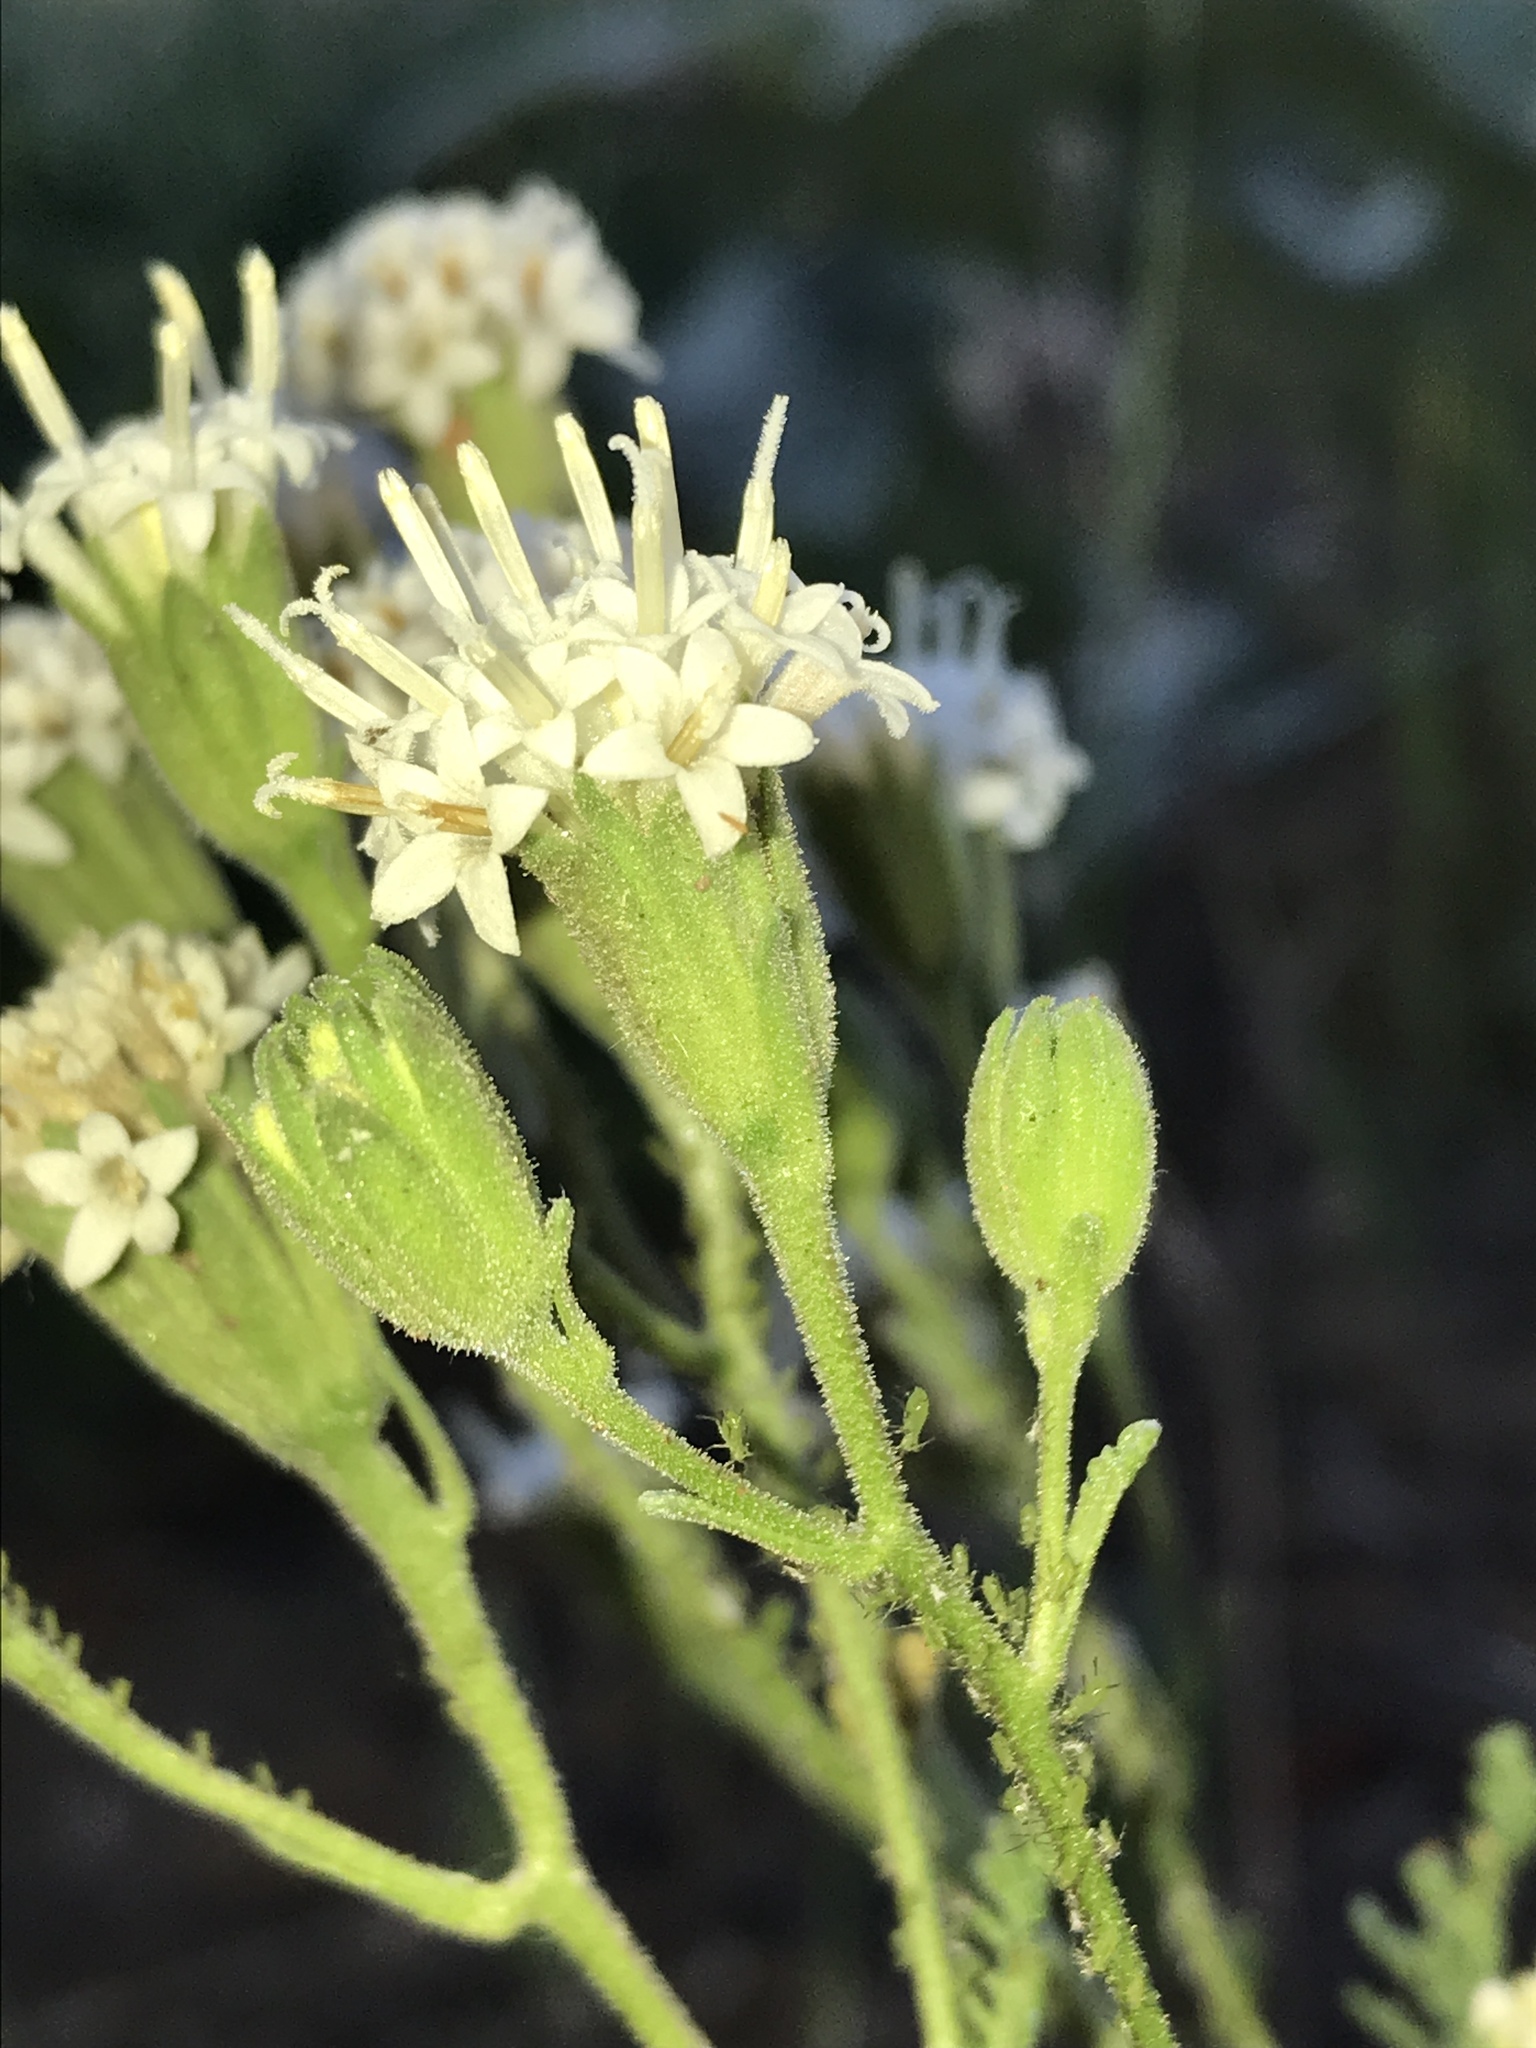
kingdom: Plantae
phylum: Tracheophyta
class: Magnoliopsida
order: Asterales
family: Asteraceae
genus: Chaenactis
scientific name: Chaenactis douglasii
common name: Hoary pincushion
